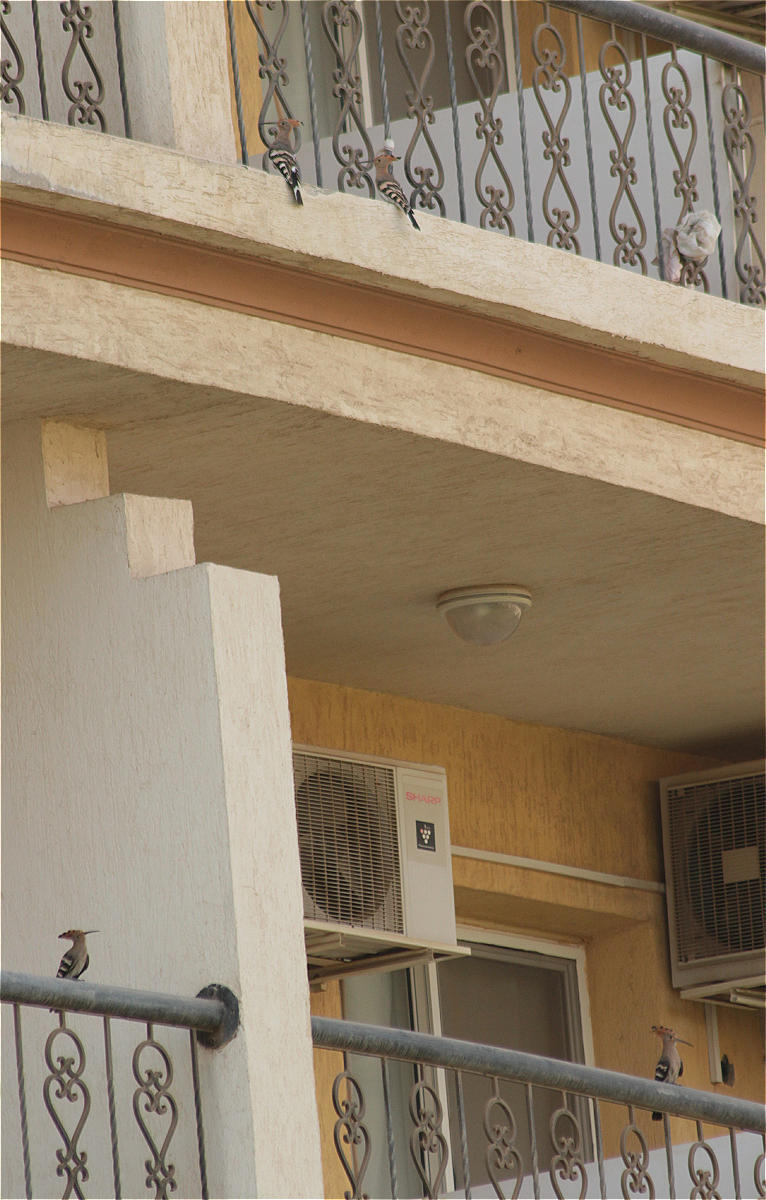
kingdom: Animalia
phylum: Chordata
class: Aves
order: Bucerotiformes
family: Upupidae
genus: Upupa
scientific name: Upupa epops
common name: Eurasian hoopoe
